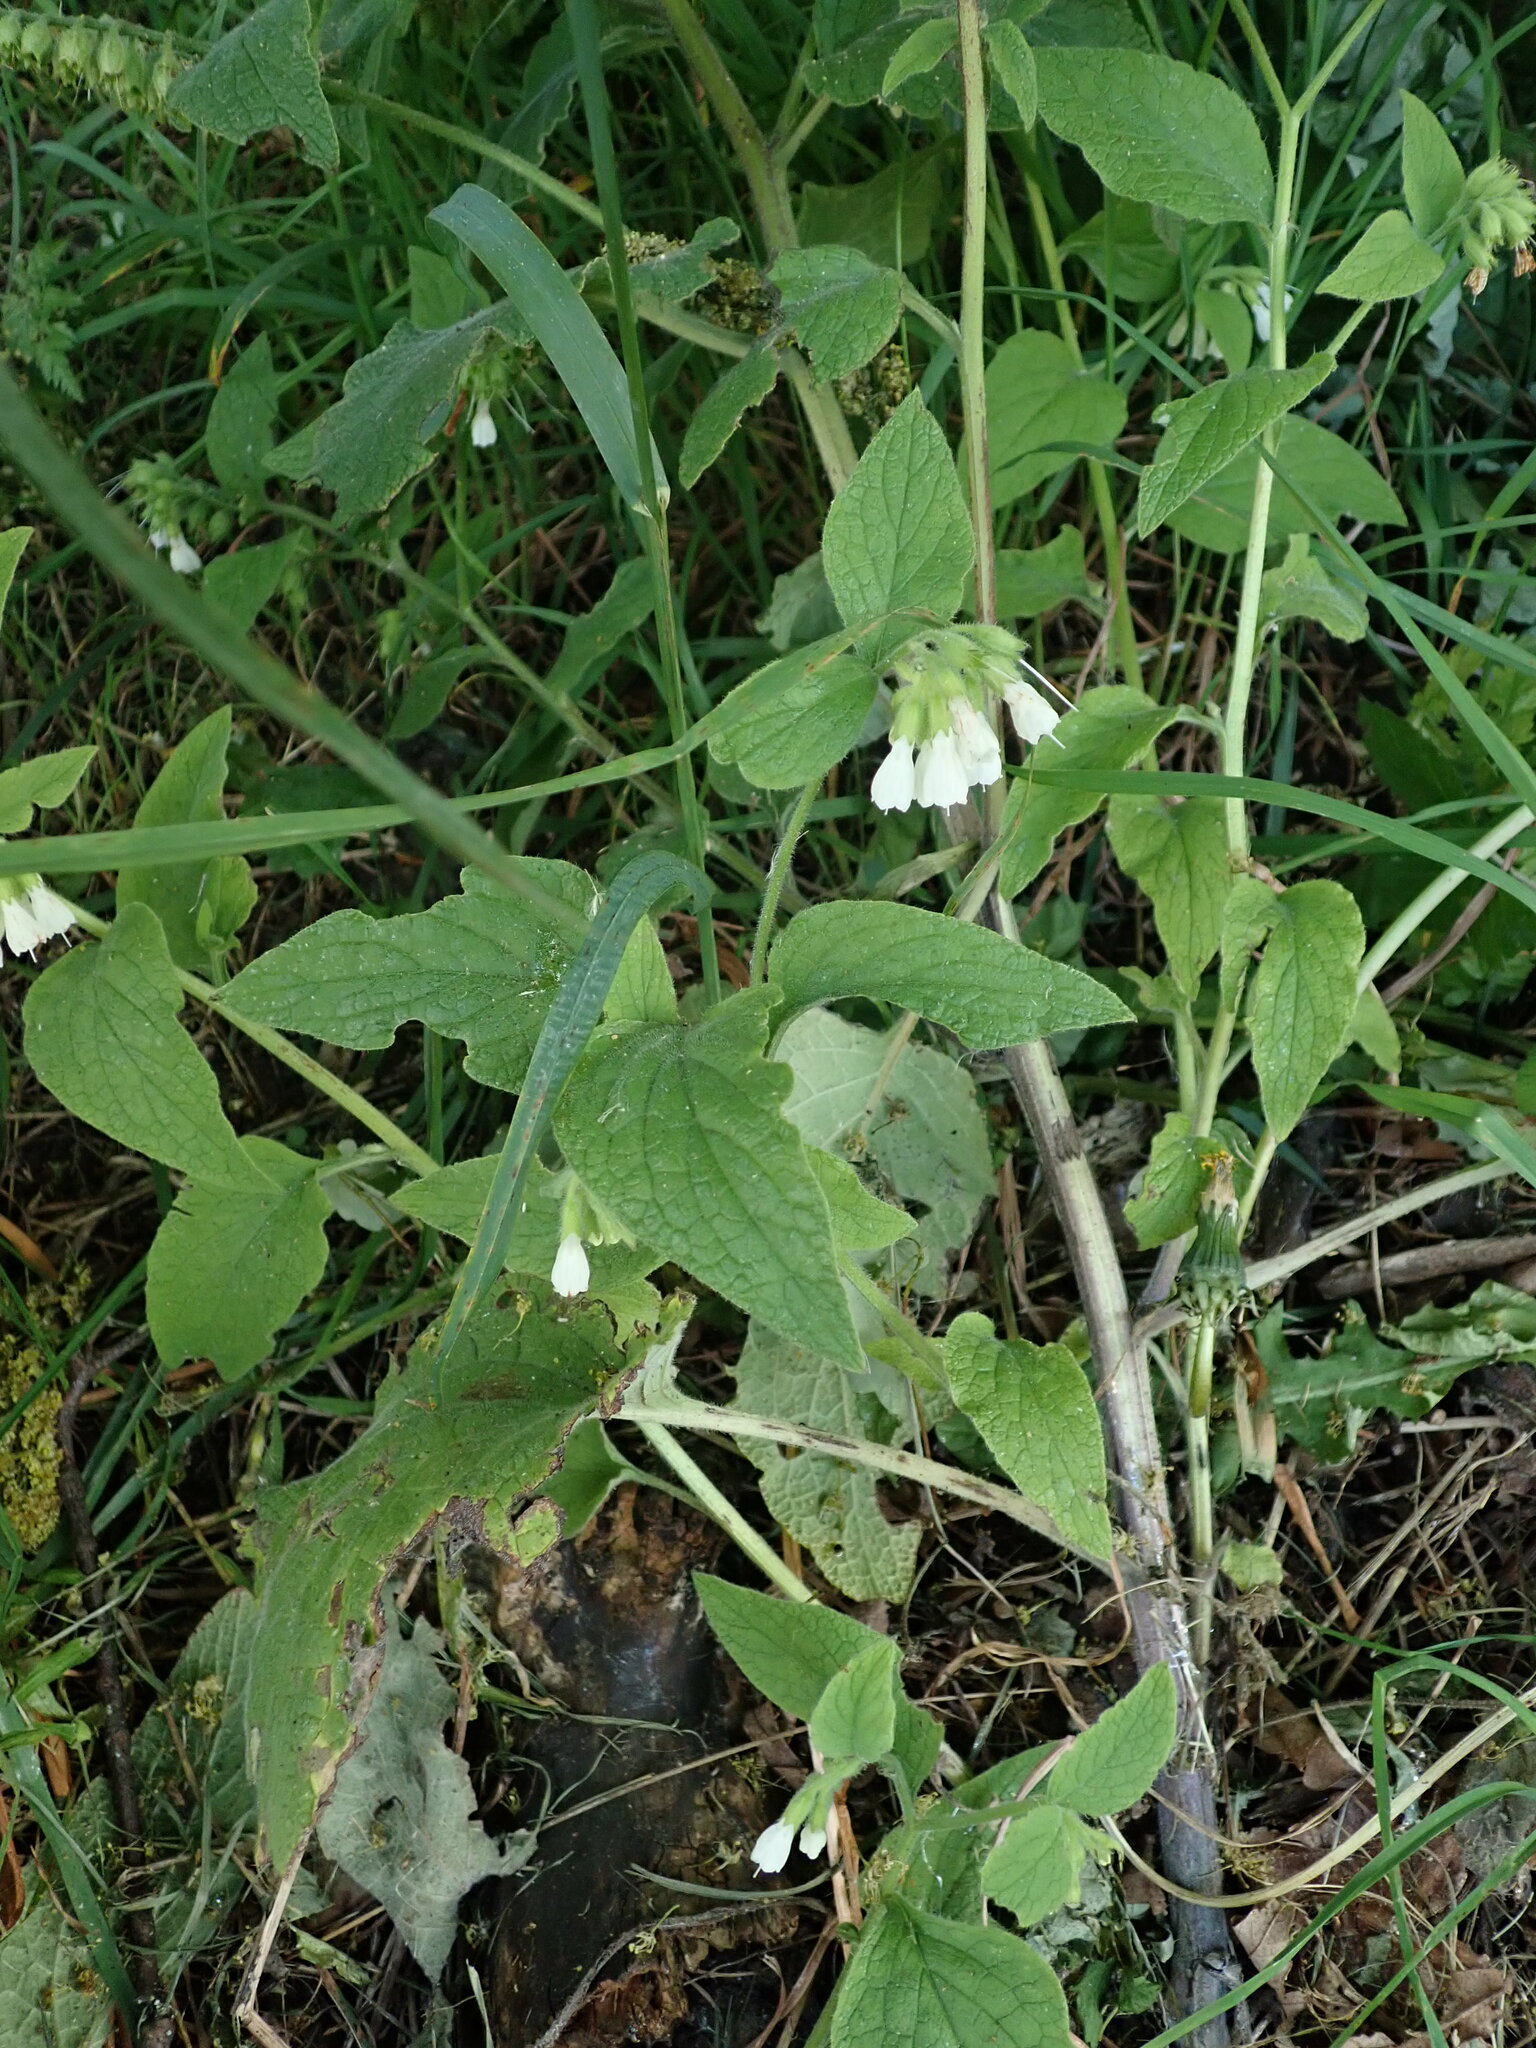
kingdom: Plantae
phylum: Tracheophyta
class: Magnoliopsida
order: Boraginales
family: Boraginaceae
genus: Symphytum
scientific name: Symphytum orientale
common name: White comfrey
